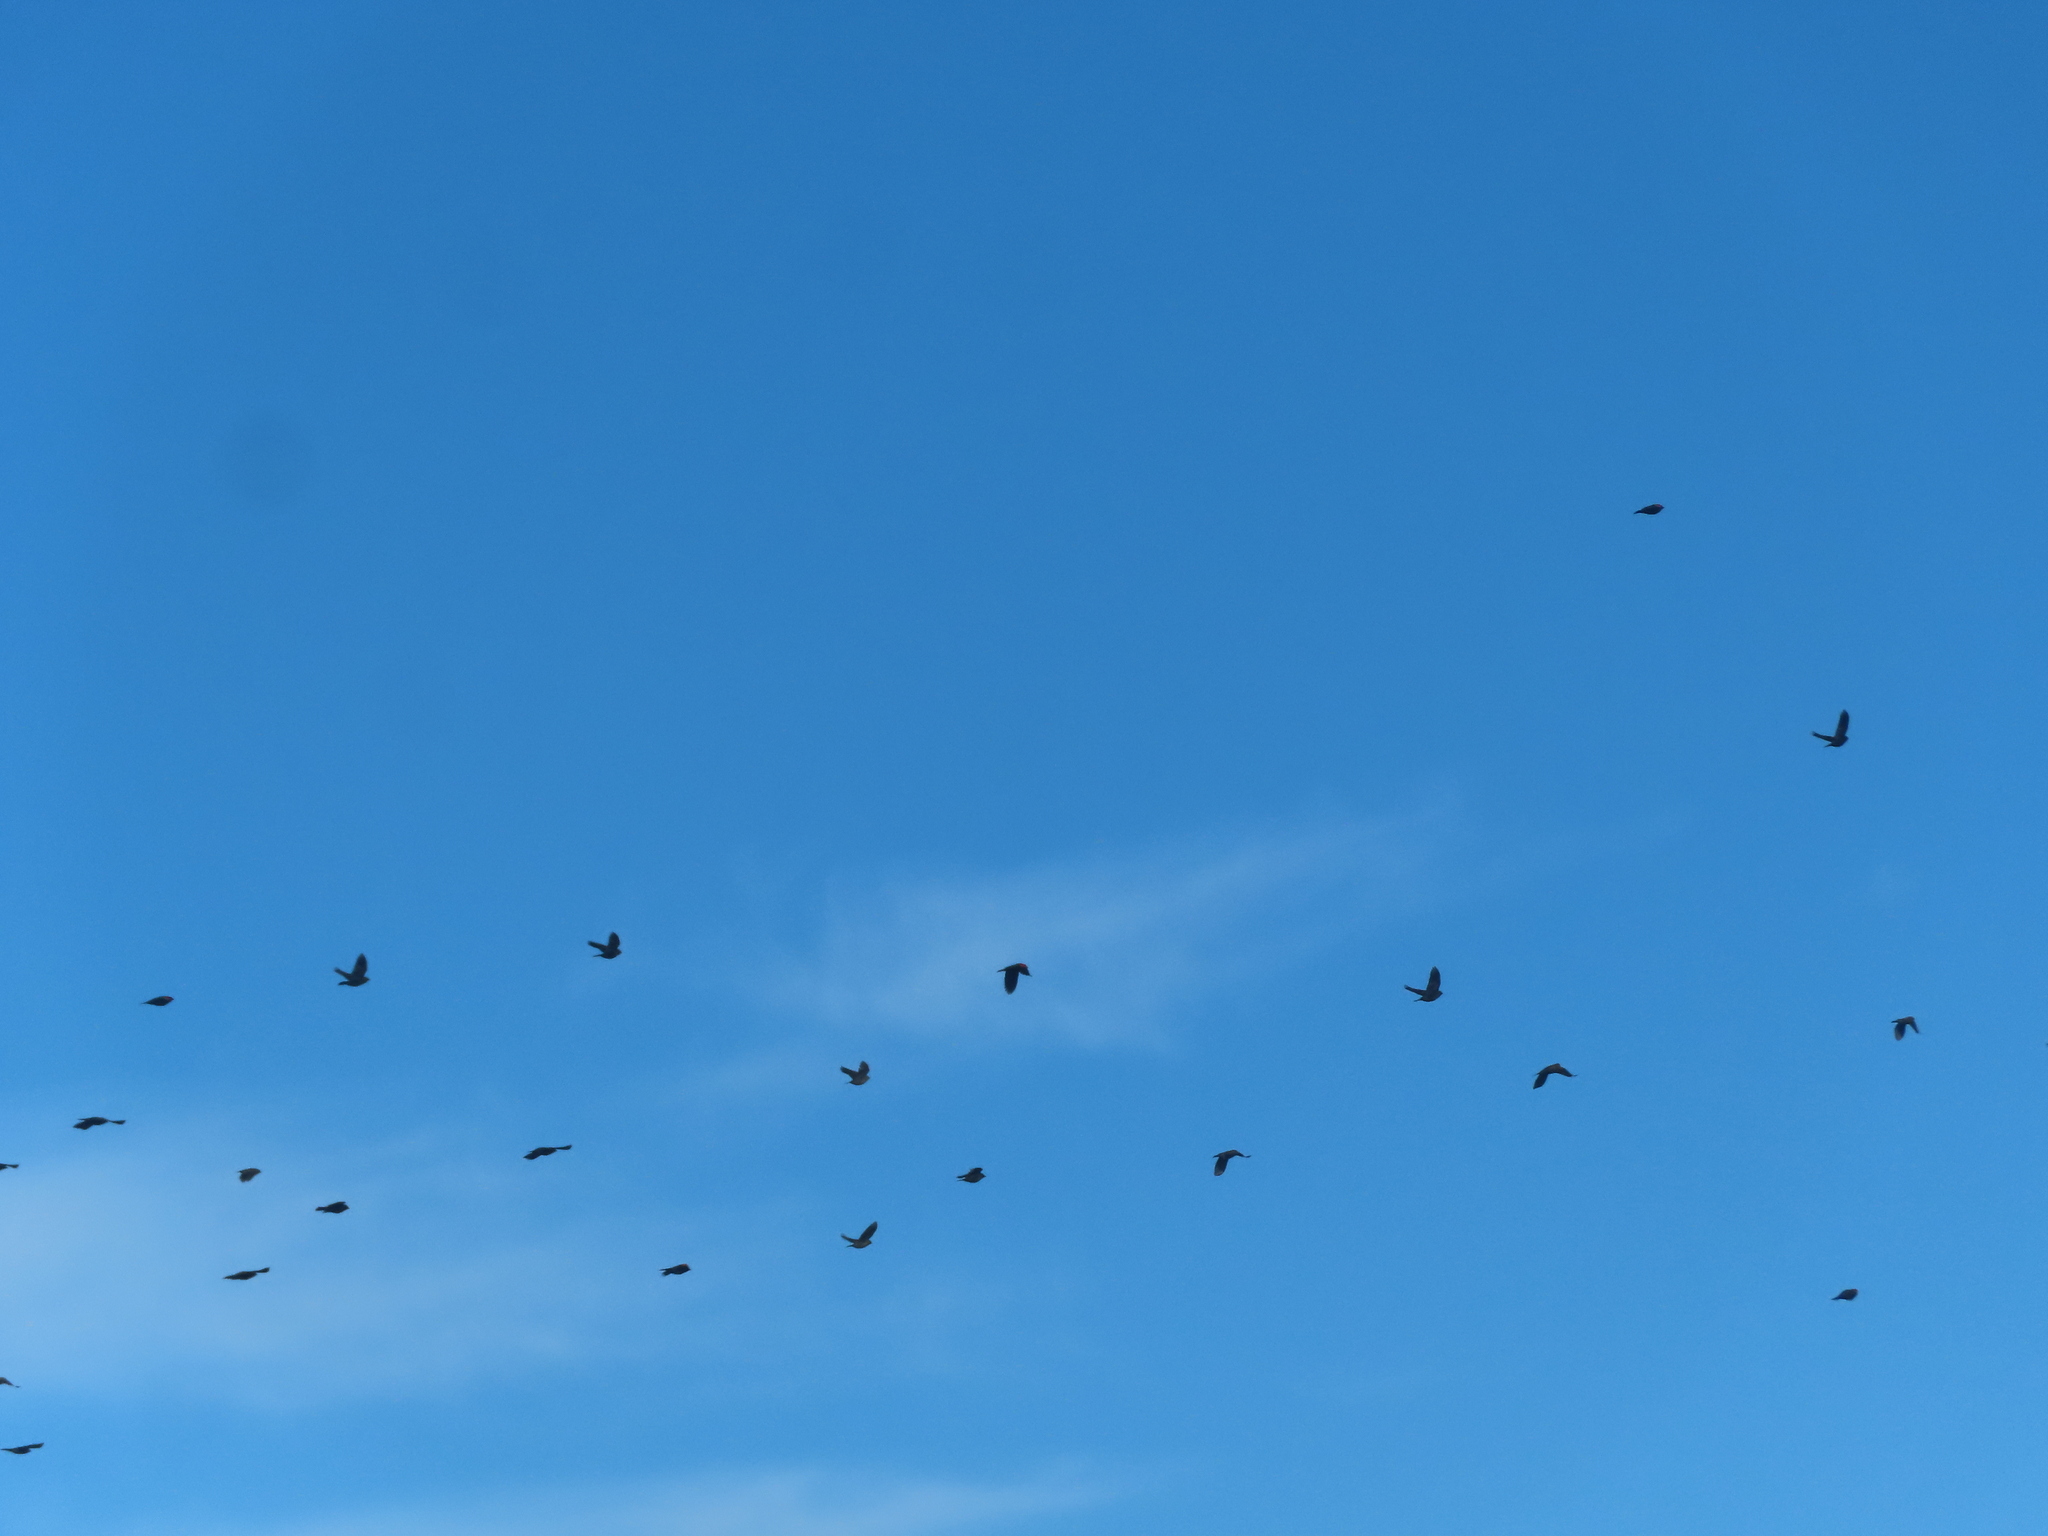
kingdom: Animalia
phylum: Chordata
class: Aves
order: Passeriformes
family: Sturnidae
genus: Sturnus
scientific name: Sturnus vulgaris
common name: Common starling
